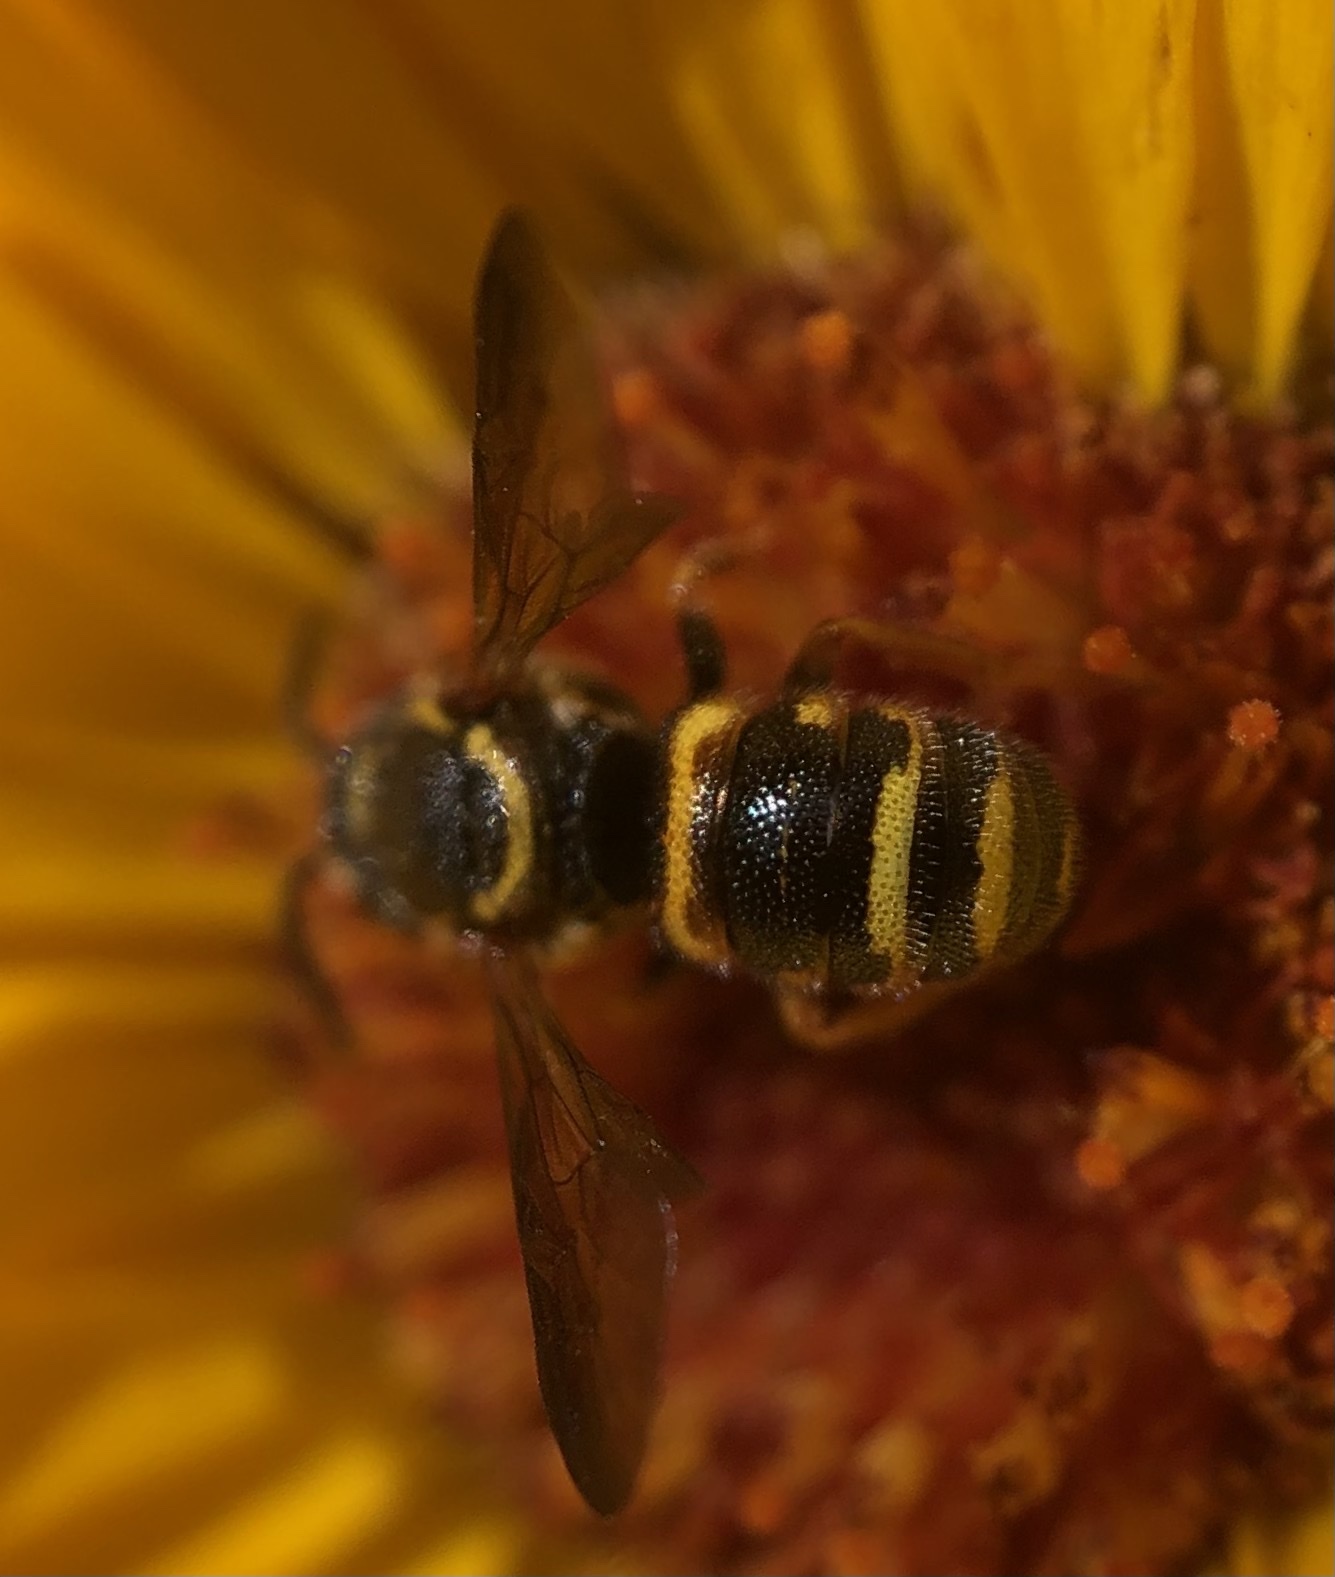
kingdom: Animalia
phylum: Arthropoda
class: Insecta
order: Hymenoptera
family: Megachilidae
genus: Stelis
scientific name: Stelis louisae
